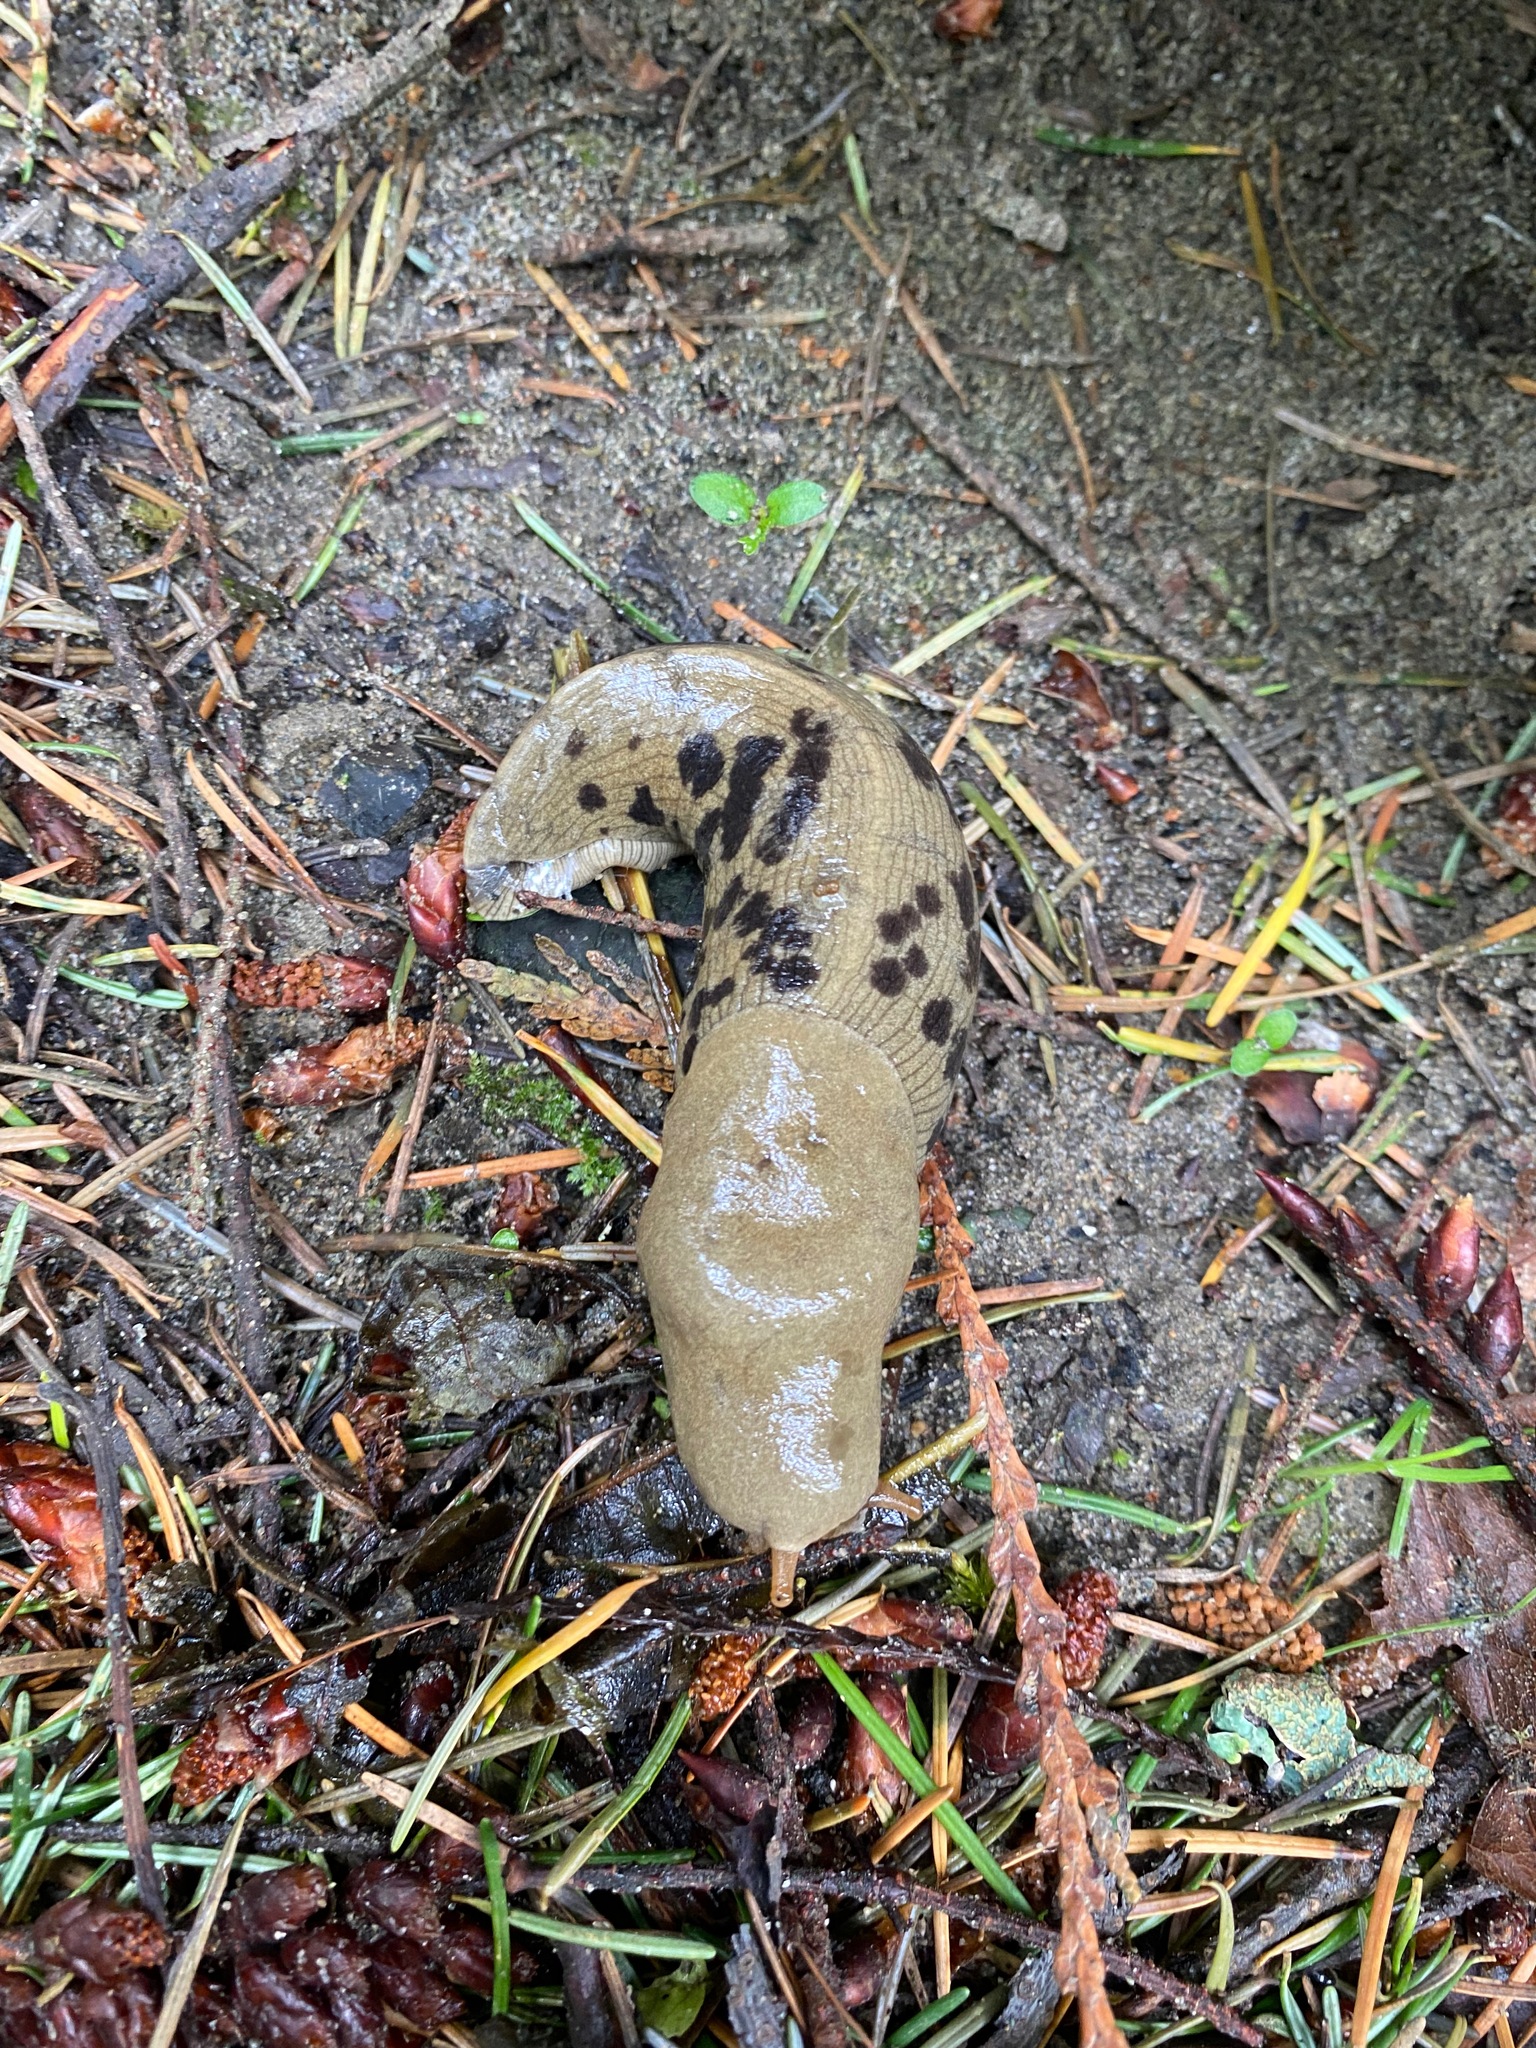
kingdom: Animalia
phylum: Mollusca
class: Gastropoda
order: Stylommatophora
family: Ariolimacidae
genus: Ariolimax
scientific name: Ariolimax columbianus
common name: Pacific banana slug
